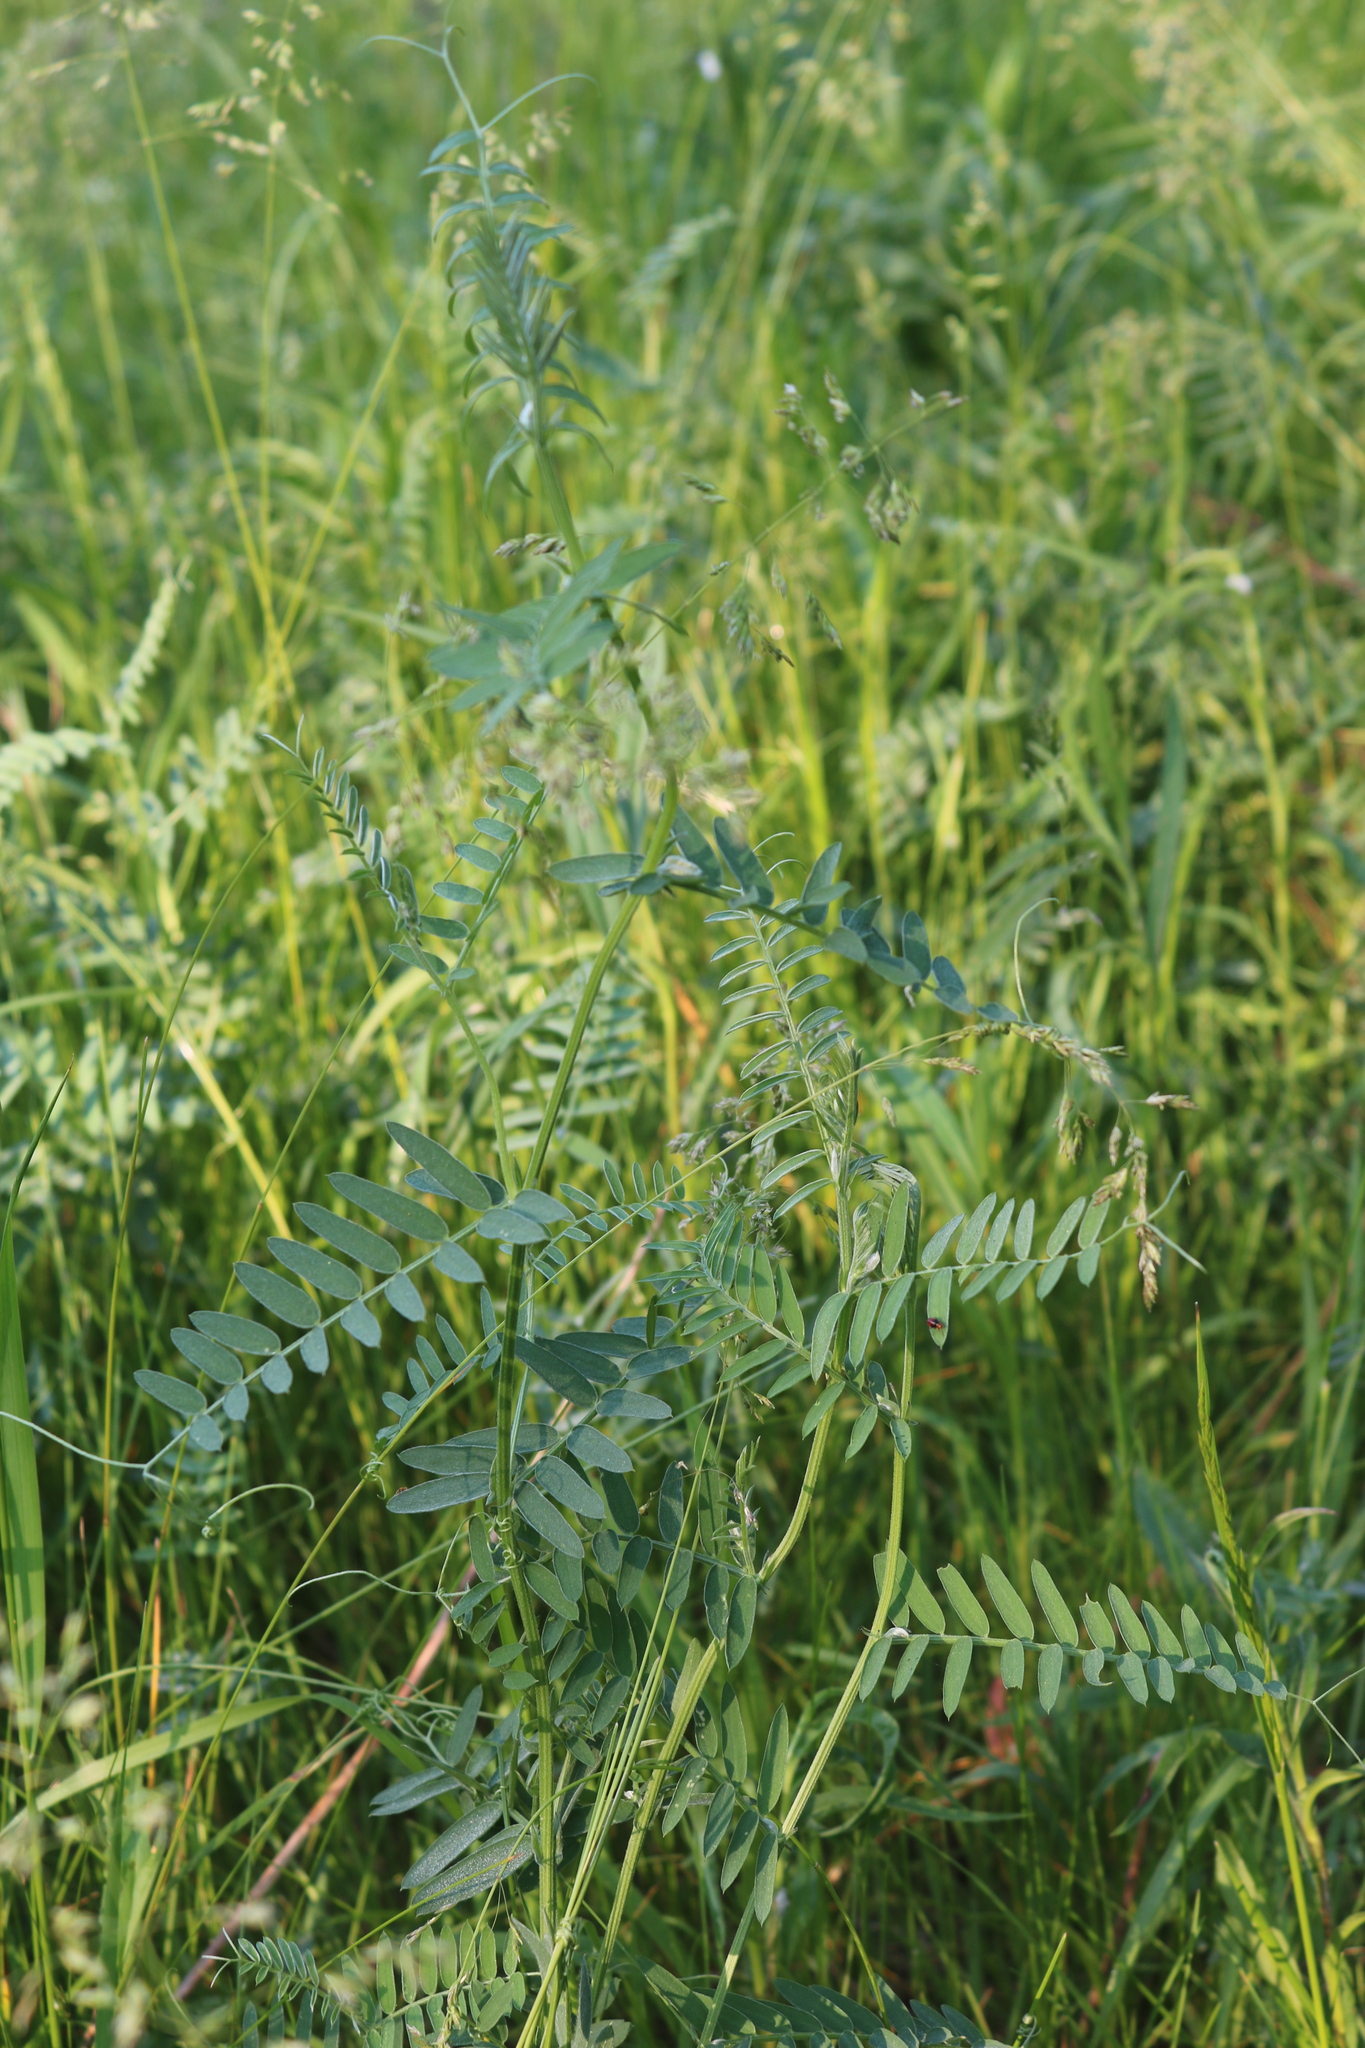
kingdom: Plantae
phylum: Tracheophyta
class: Magnoliopsida
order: Fabales
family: Fabaceae
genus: Vicia
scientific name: Vicia cracca
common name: Bird vetch
